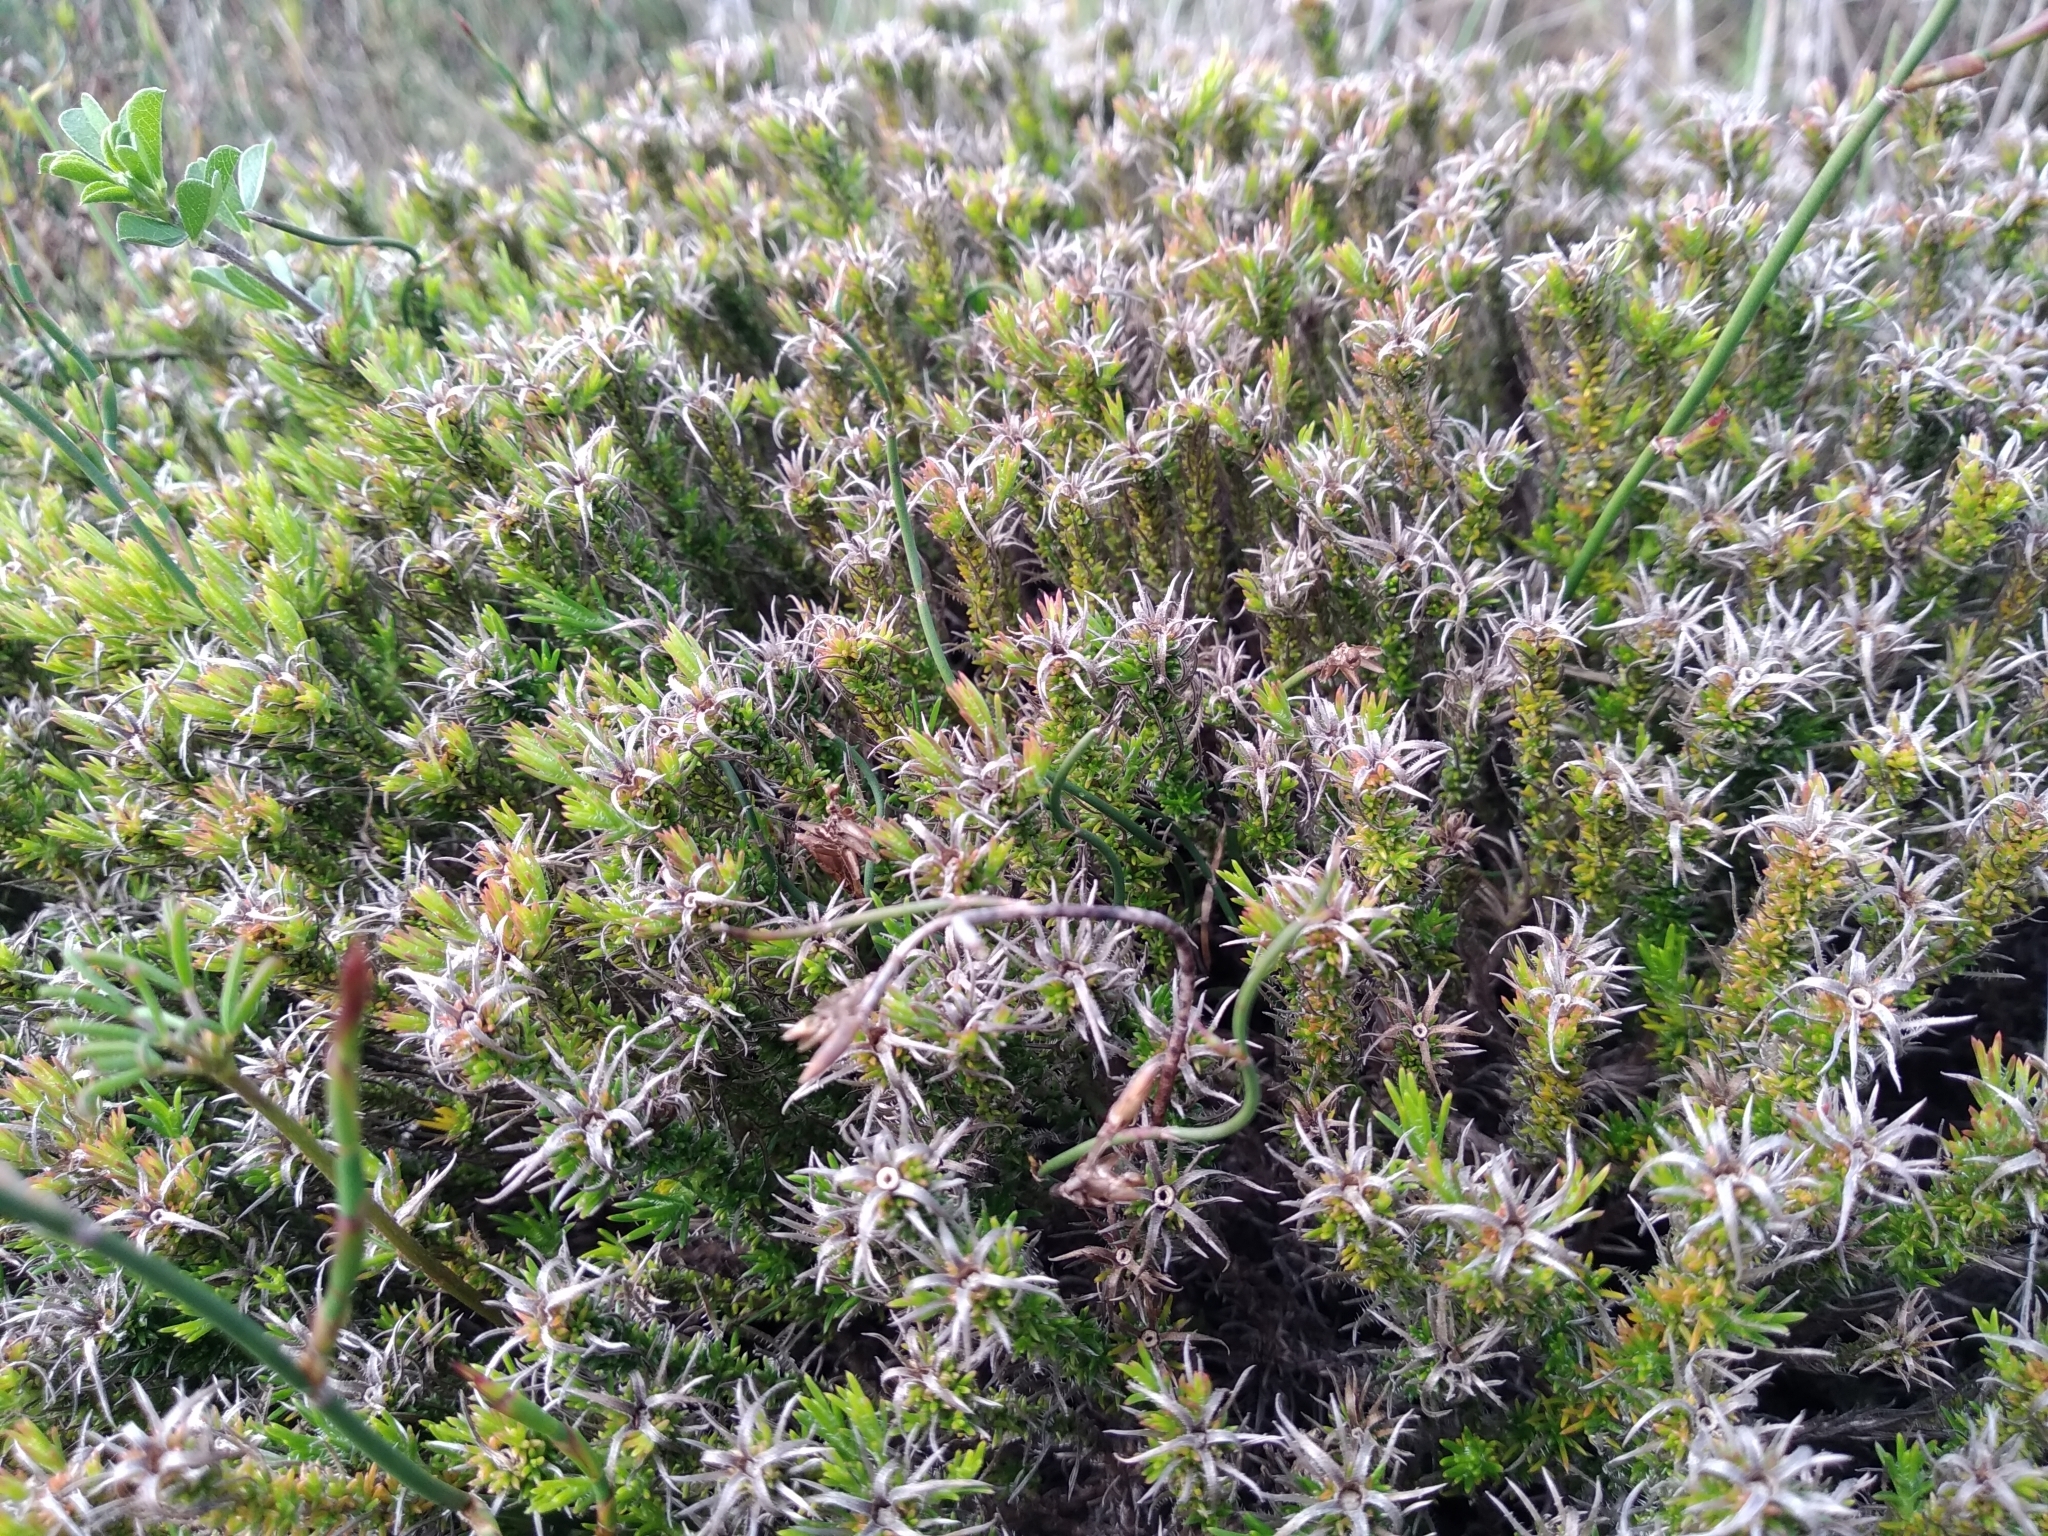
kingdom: Plantae
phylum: Tracheophyta
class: Magnoliopsida
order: Asterales
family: Campanulaceae
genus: Roella
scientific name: Roella ciliata
